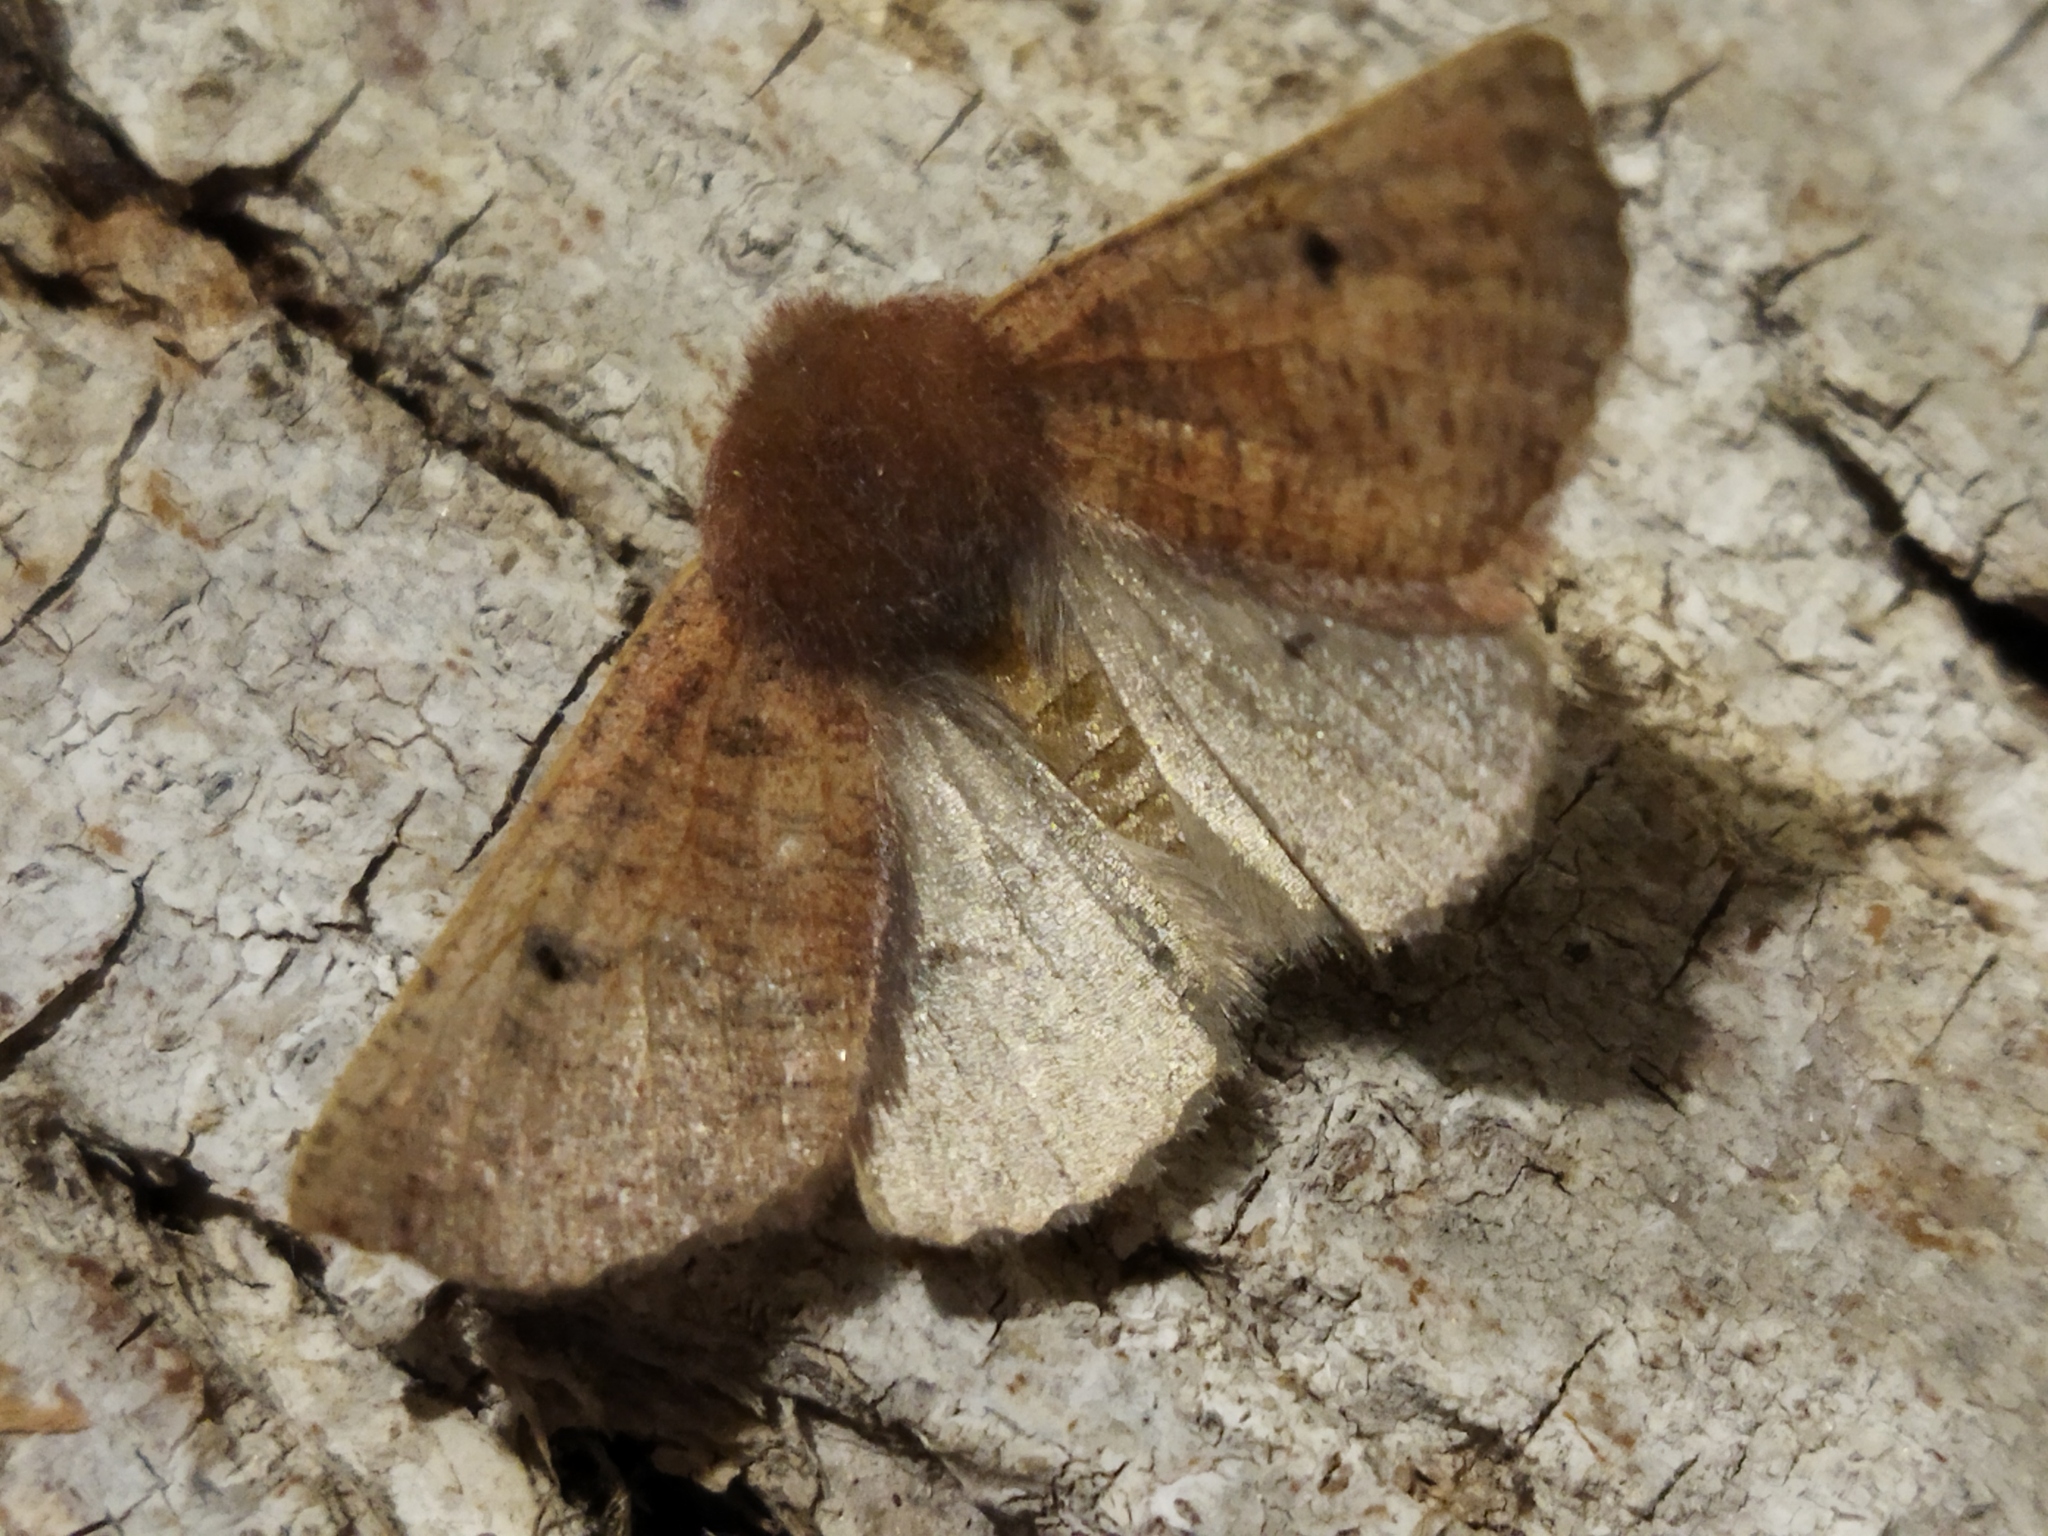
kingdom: Animalia
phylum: Arthropoda
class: Insecta
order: Lepidoptera
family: Geometridae
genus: Dasycorsa
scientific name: Dasycorsa modesta
